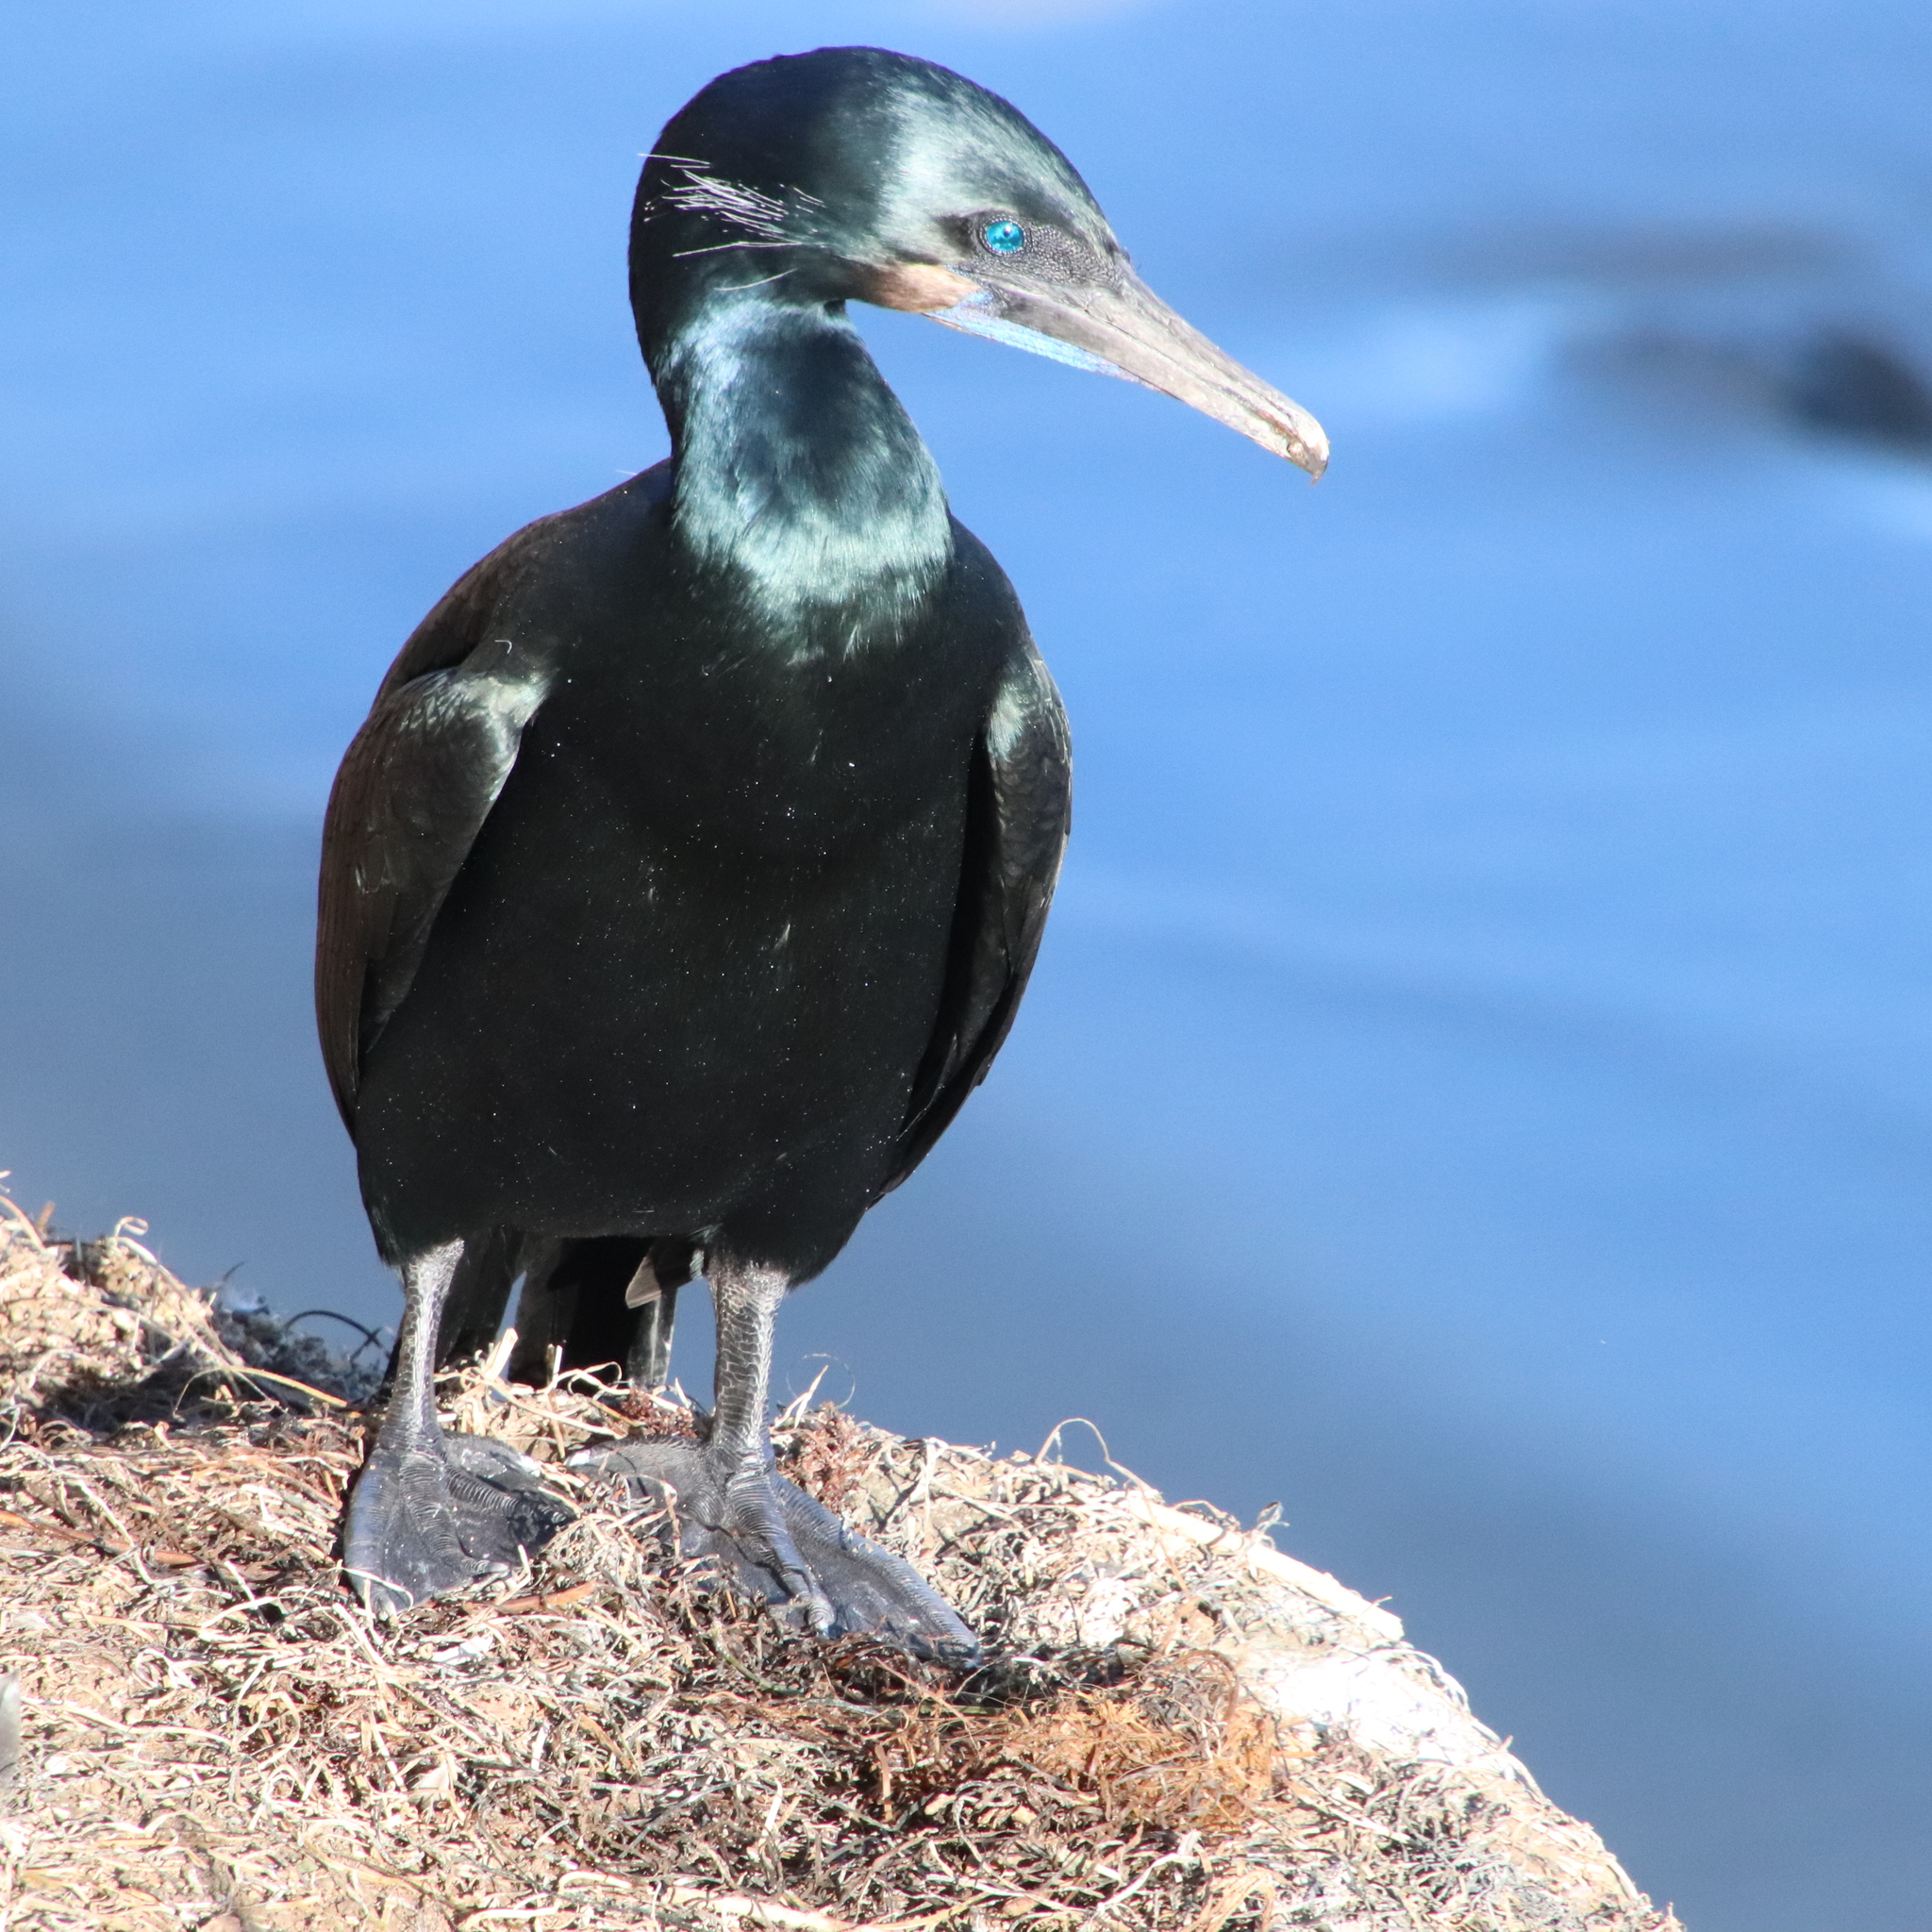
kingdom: Animalia
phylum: Chordata
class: Aves
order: Suliformes
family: Phalacrocoracidae
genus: Urile
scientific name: Urile penicillatus
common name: Brandt's cormorant
